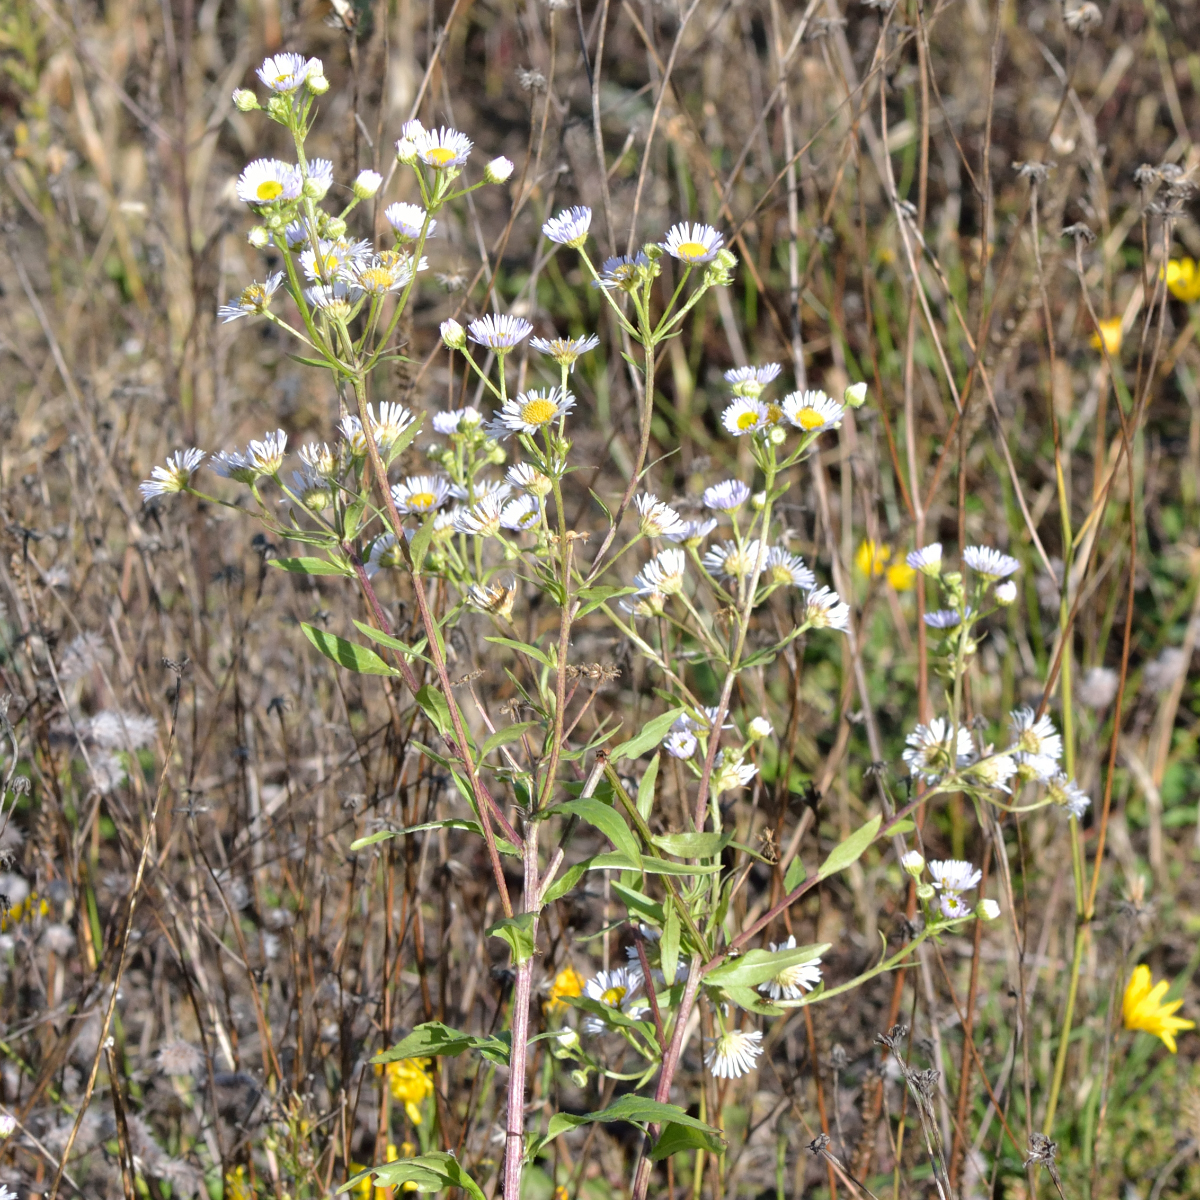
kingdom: Plantae
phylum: Tracheophyta
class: Magnoliopsida
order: Asterales
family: Asteraceae
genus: Erigeron
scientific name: Erigeron annuus
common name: Tall fleabane
